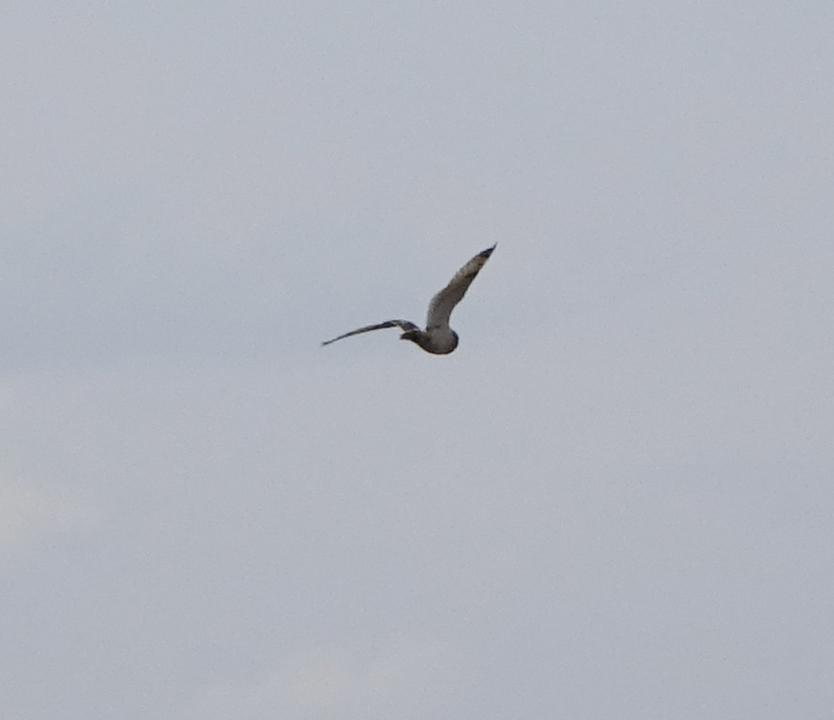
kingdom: Animalia
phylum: Chordata
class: Aves
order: Strigiformes
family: Strigidae
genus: Asio
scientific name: Asio flammeus
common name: Short-eared owl
